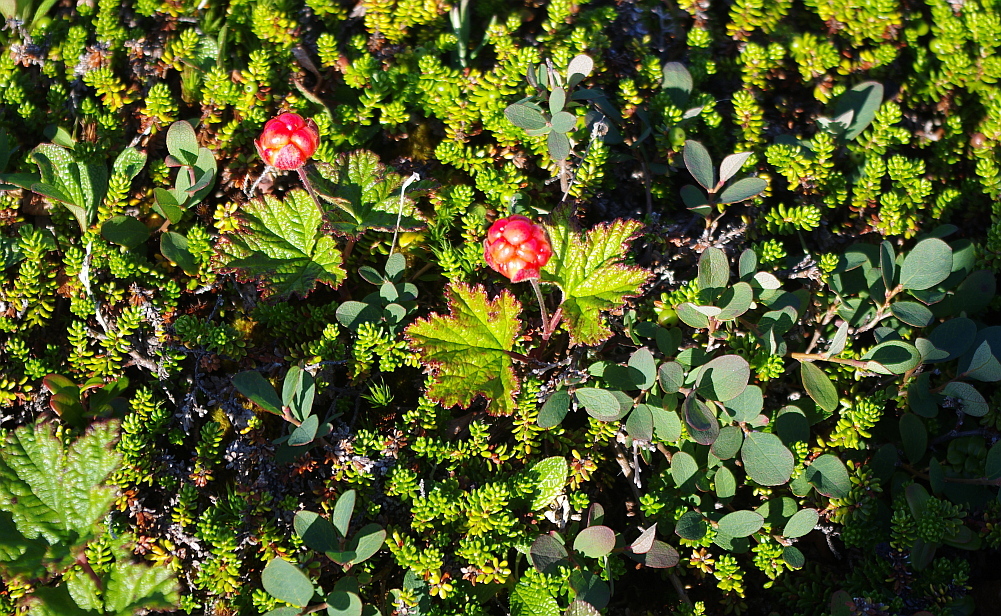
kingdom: Plantae
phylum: Tracheophyta
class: Magnoliopsida
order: Ericales
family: Ericaceae
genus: Empetrum
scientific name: Empetrum nigrum
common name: Black crowberry
